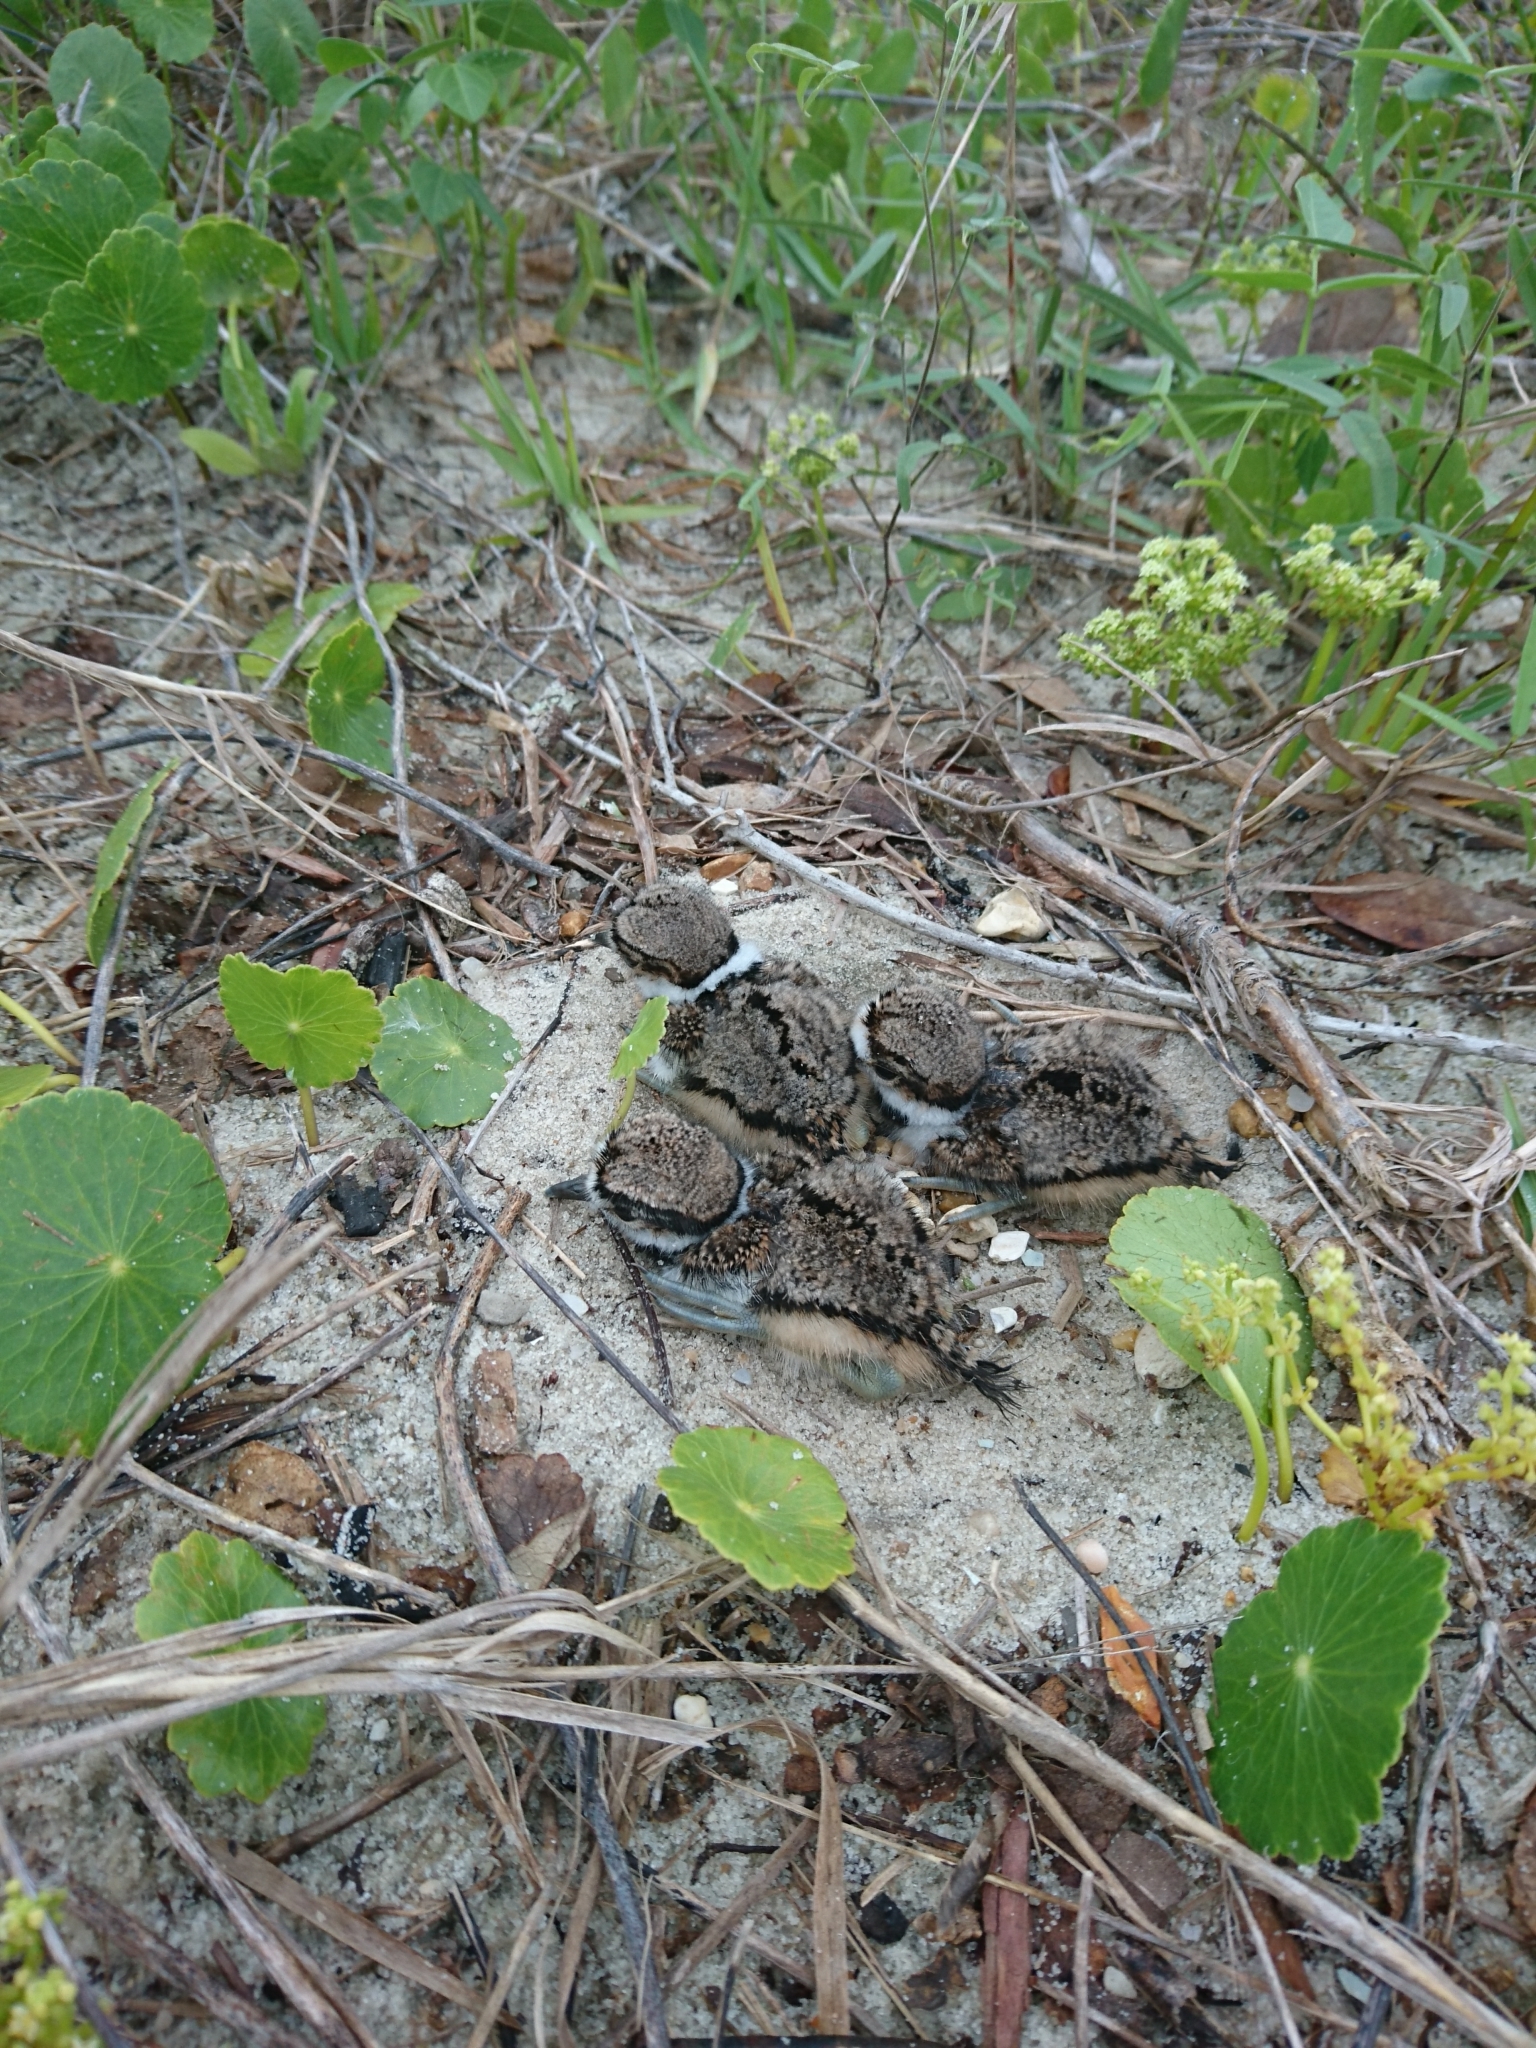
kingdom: Animalia
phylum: Chordata
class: Aves
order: Charadriiformes
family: Charadriidae
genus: Charadrius
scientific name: Charadrius vociferus
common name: Killdeer
